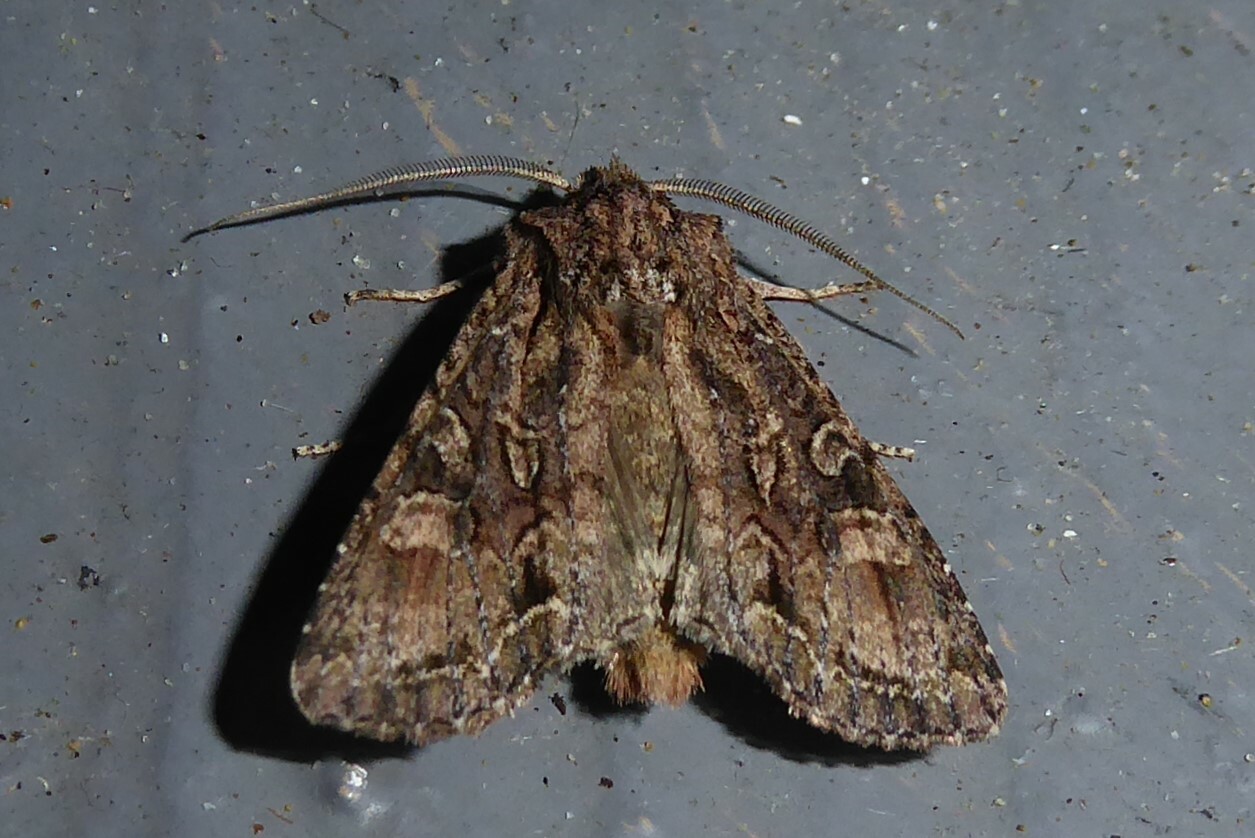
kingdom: Animalia
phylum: Arthropoda
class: Insecta
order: Lepidoptera
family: Noctuidae
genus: Ichneutica
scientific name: Ichneutica mutans
